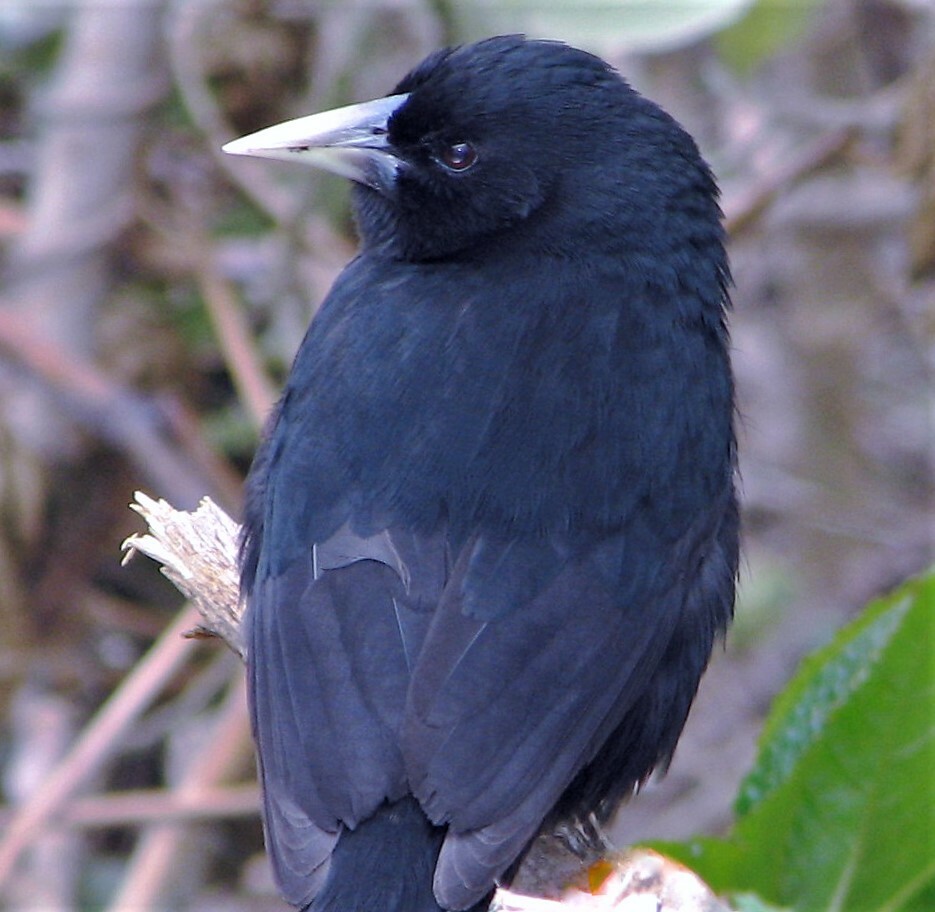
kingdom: Animalia
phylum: Chordata
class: Aves
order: Passeriformes
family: Icteridae
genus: Cacicus
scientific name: Cacicus solitarius
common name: Solitary cacique
